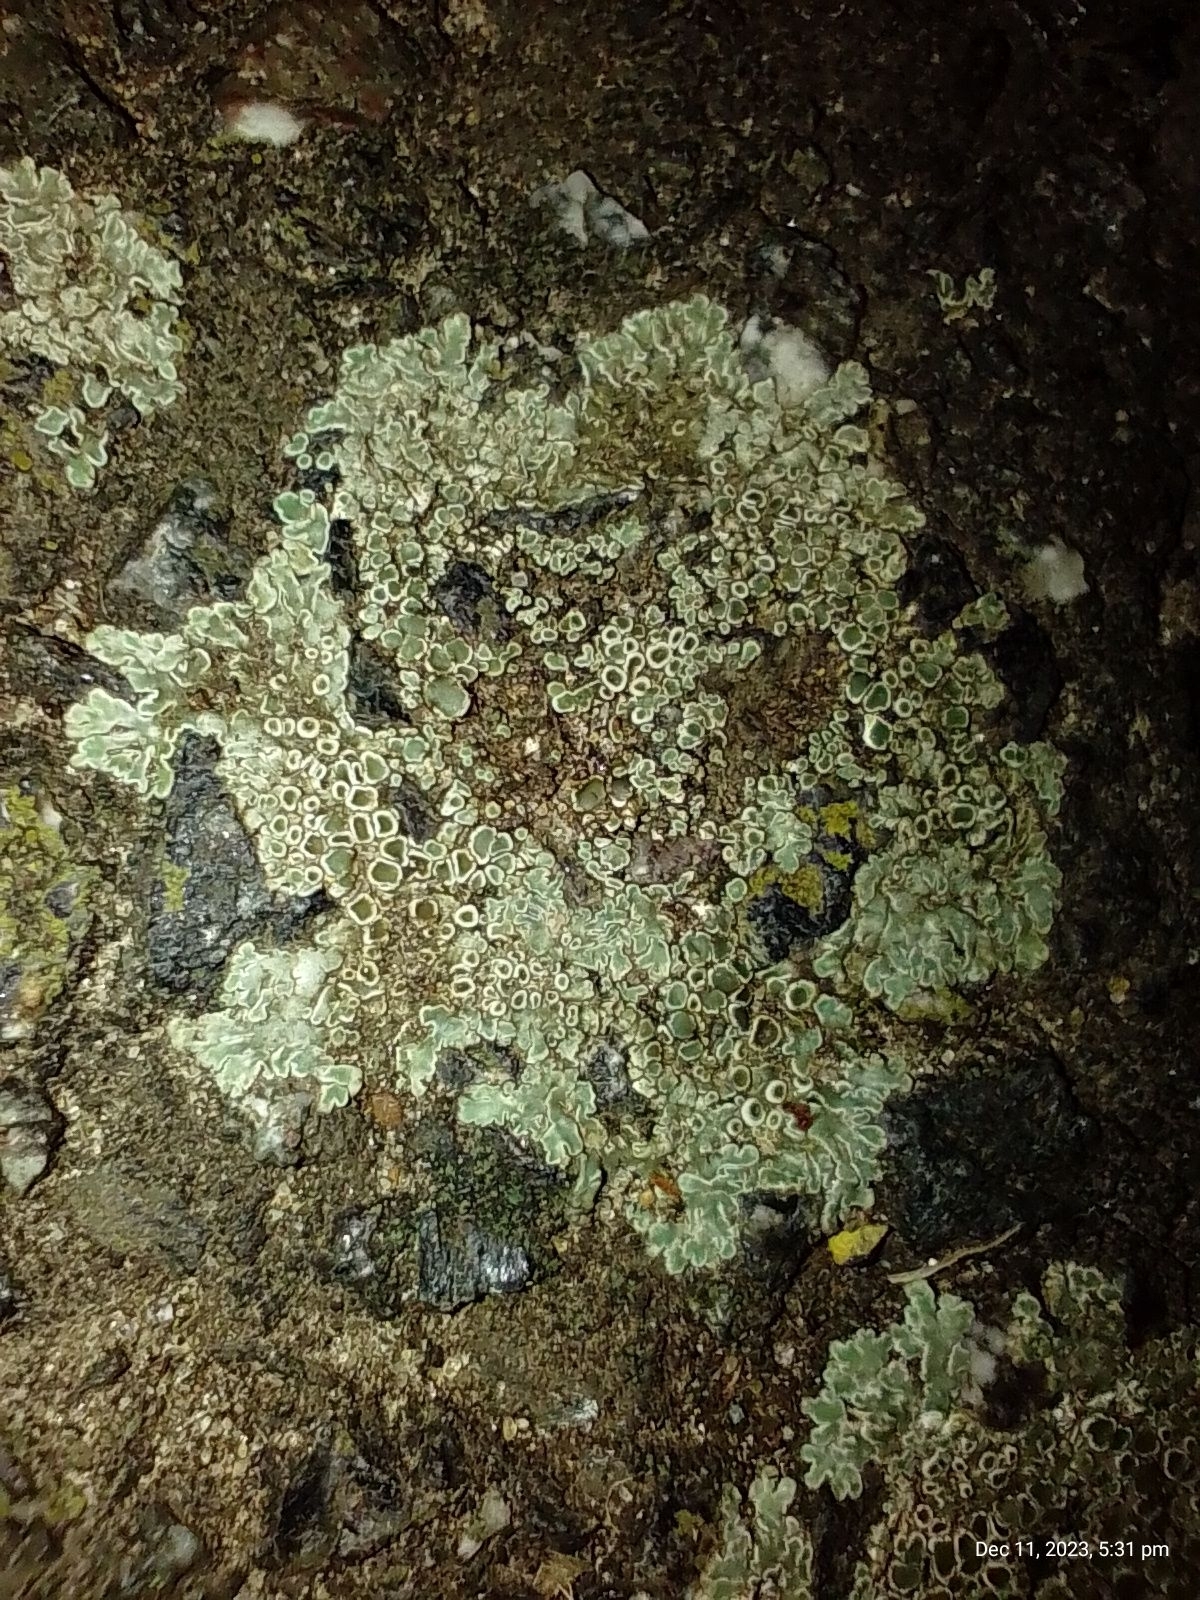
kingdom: Fungi
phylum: Ascomycota
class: Lecanoromycetes
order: Lecanorales
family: Lecanoraceae
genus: Protoparmeliopsis
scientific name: Protoparmeliopsis muralis
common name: Stonewall rim lichen
